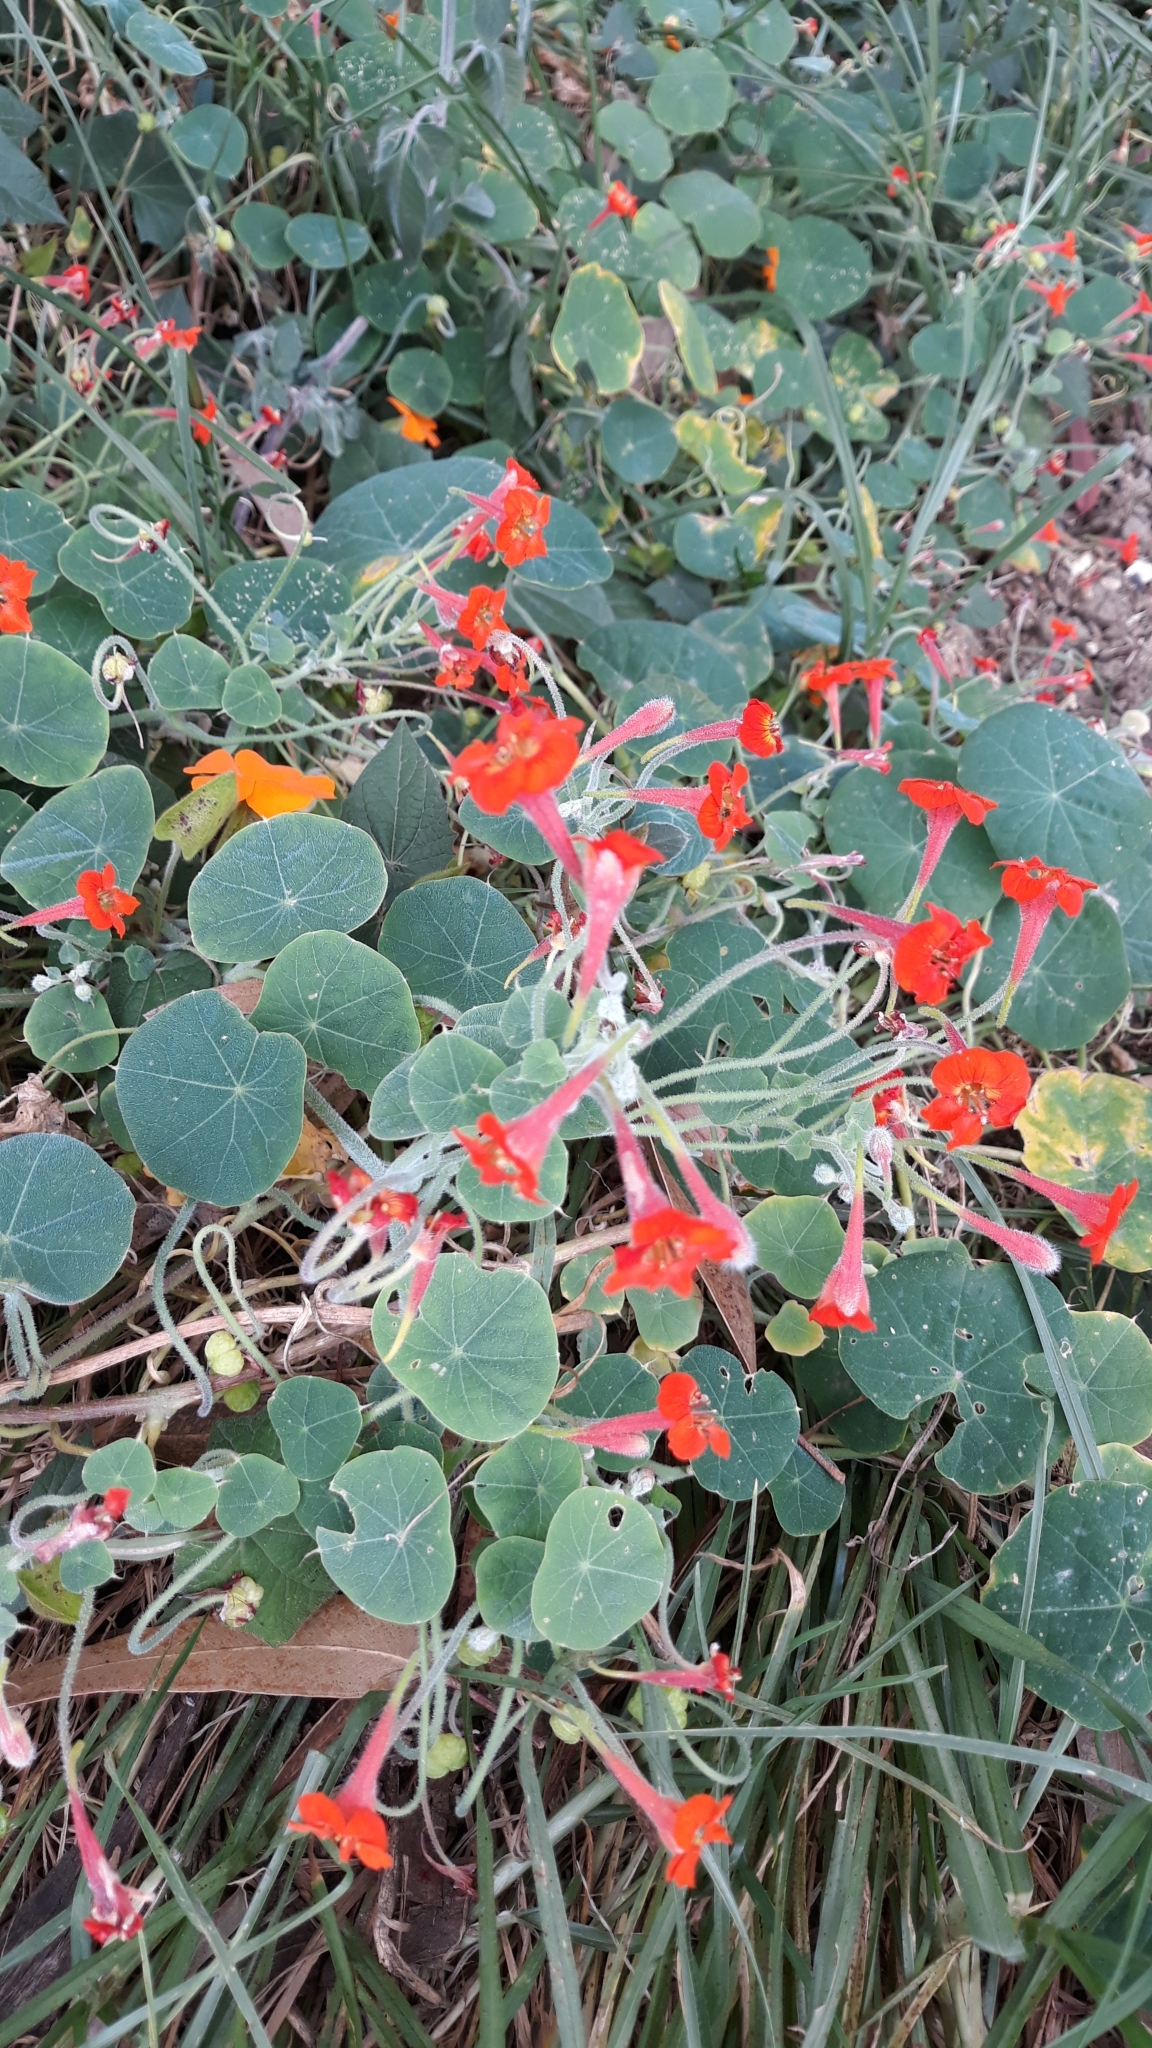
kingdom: Plantae
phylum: Tracheophyta
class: Magnoliopsida
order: Brassicales
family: Tropaeolaceae
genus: Tropaeolum
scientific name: Tropaeolum peltophorum
